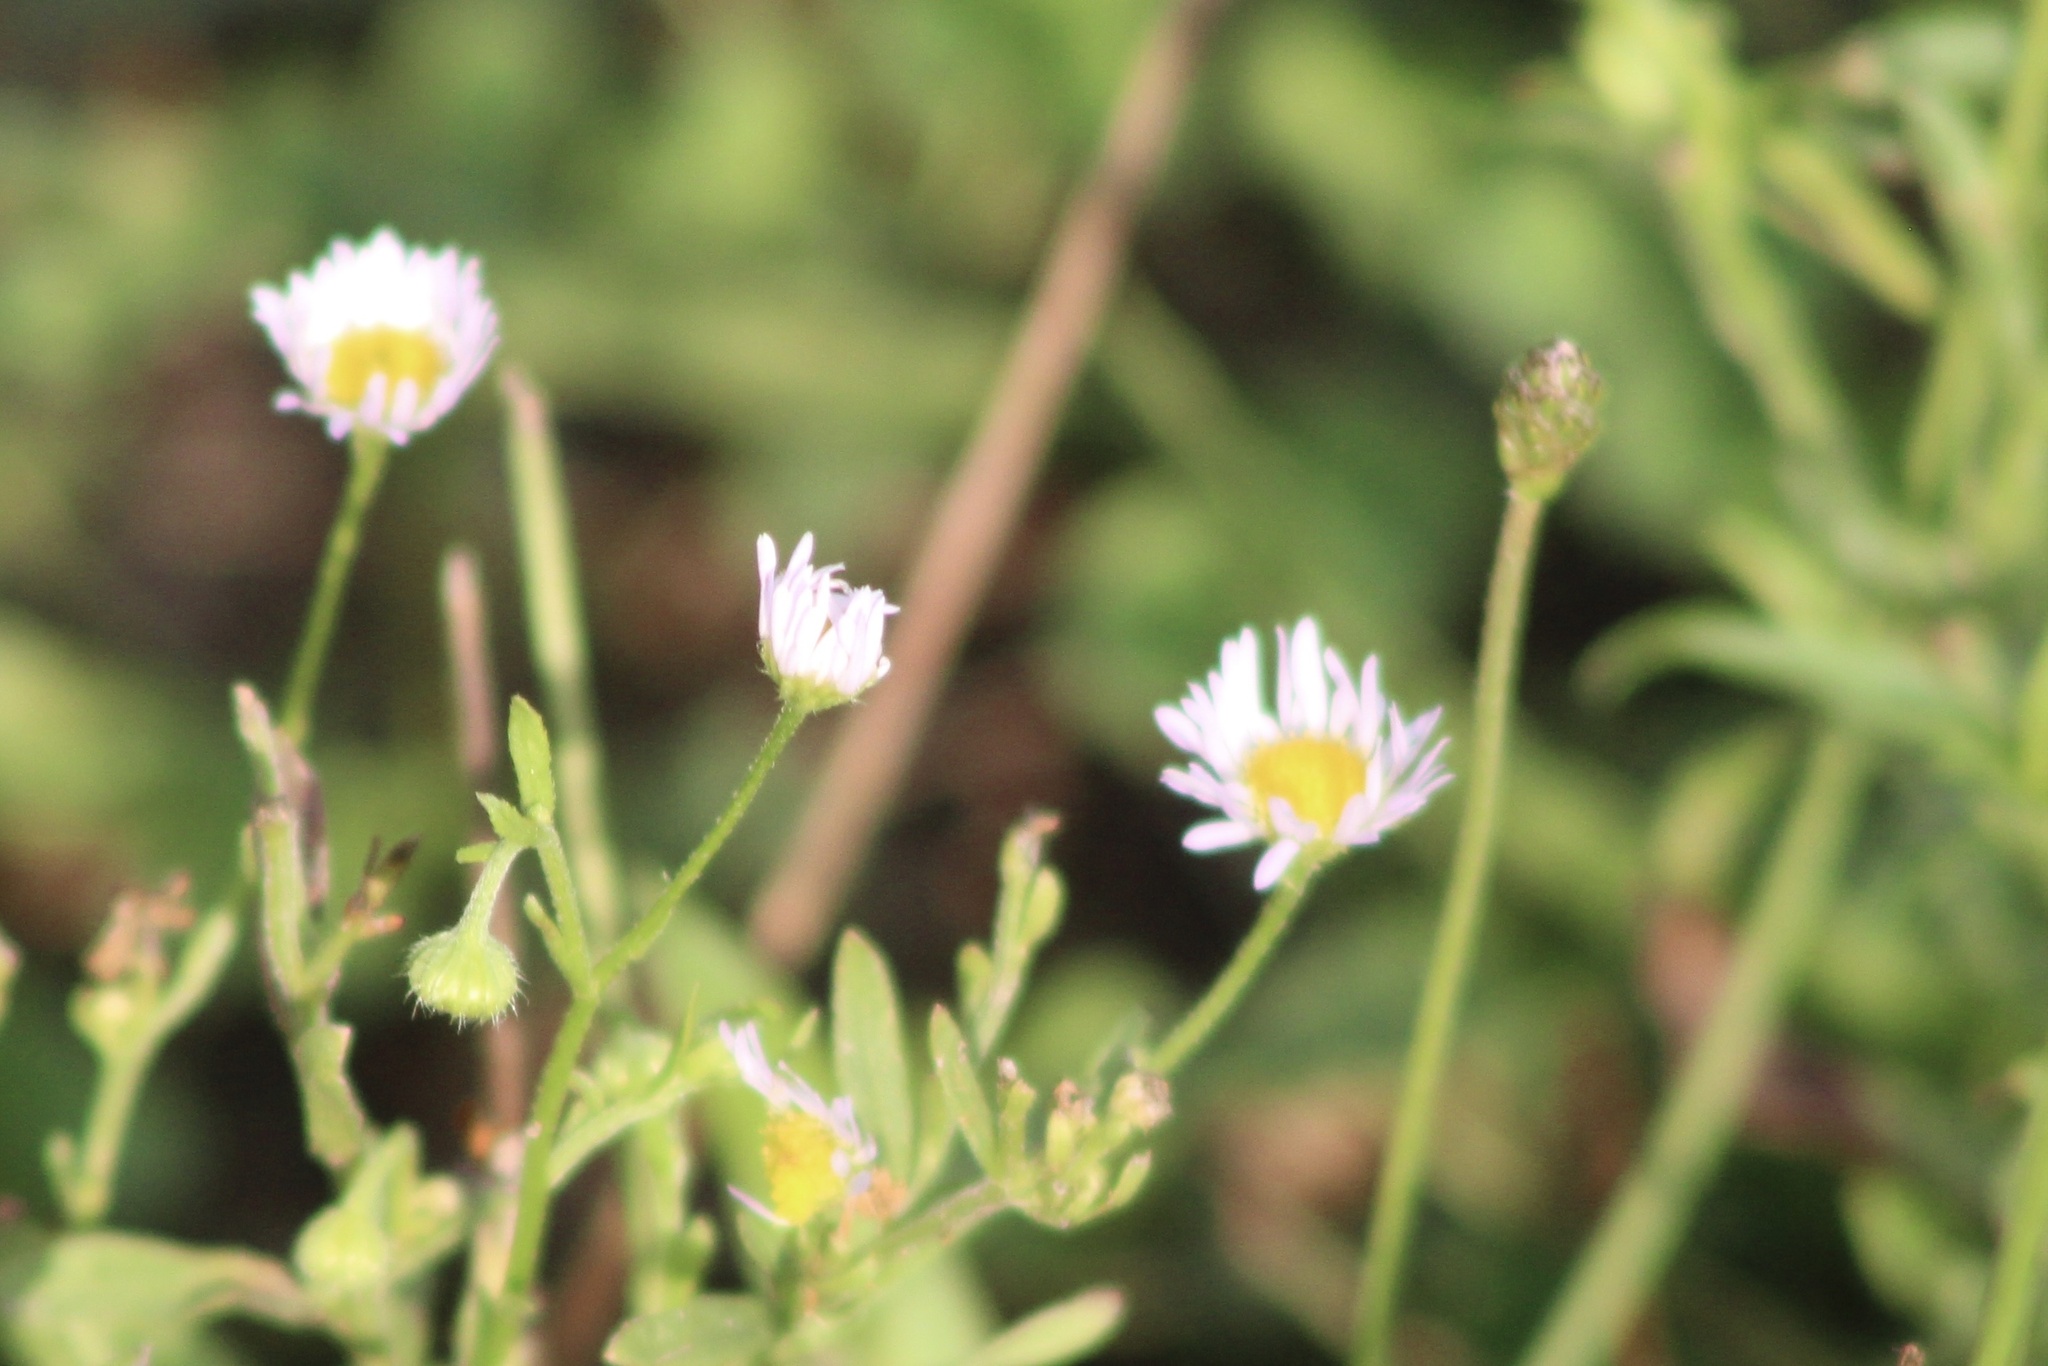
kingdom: Plantae
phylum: Tracheophyta
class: Magnoliopsida
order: Asterales
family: Asteraceae
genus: Erigeron
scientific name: Erigeron strigosus
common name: Common eastern fleabane
